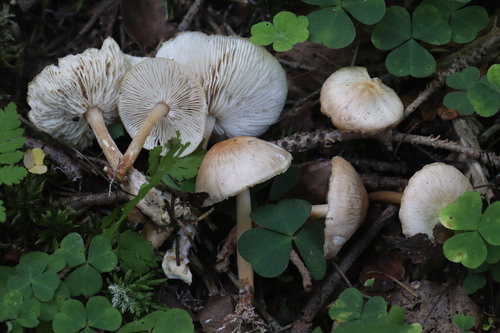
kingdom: Fungi
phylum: Basidiomycota
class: Agaricomycetes
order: Agaricales
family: Omphalotaceae
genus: Gymnopus
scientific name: Gymnopus hariolorum
